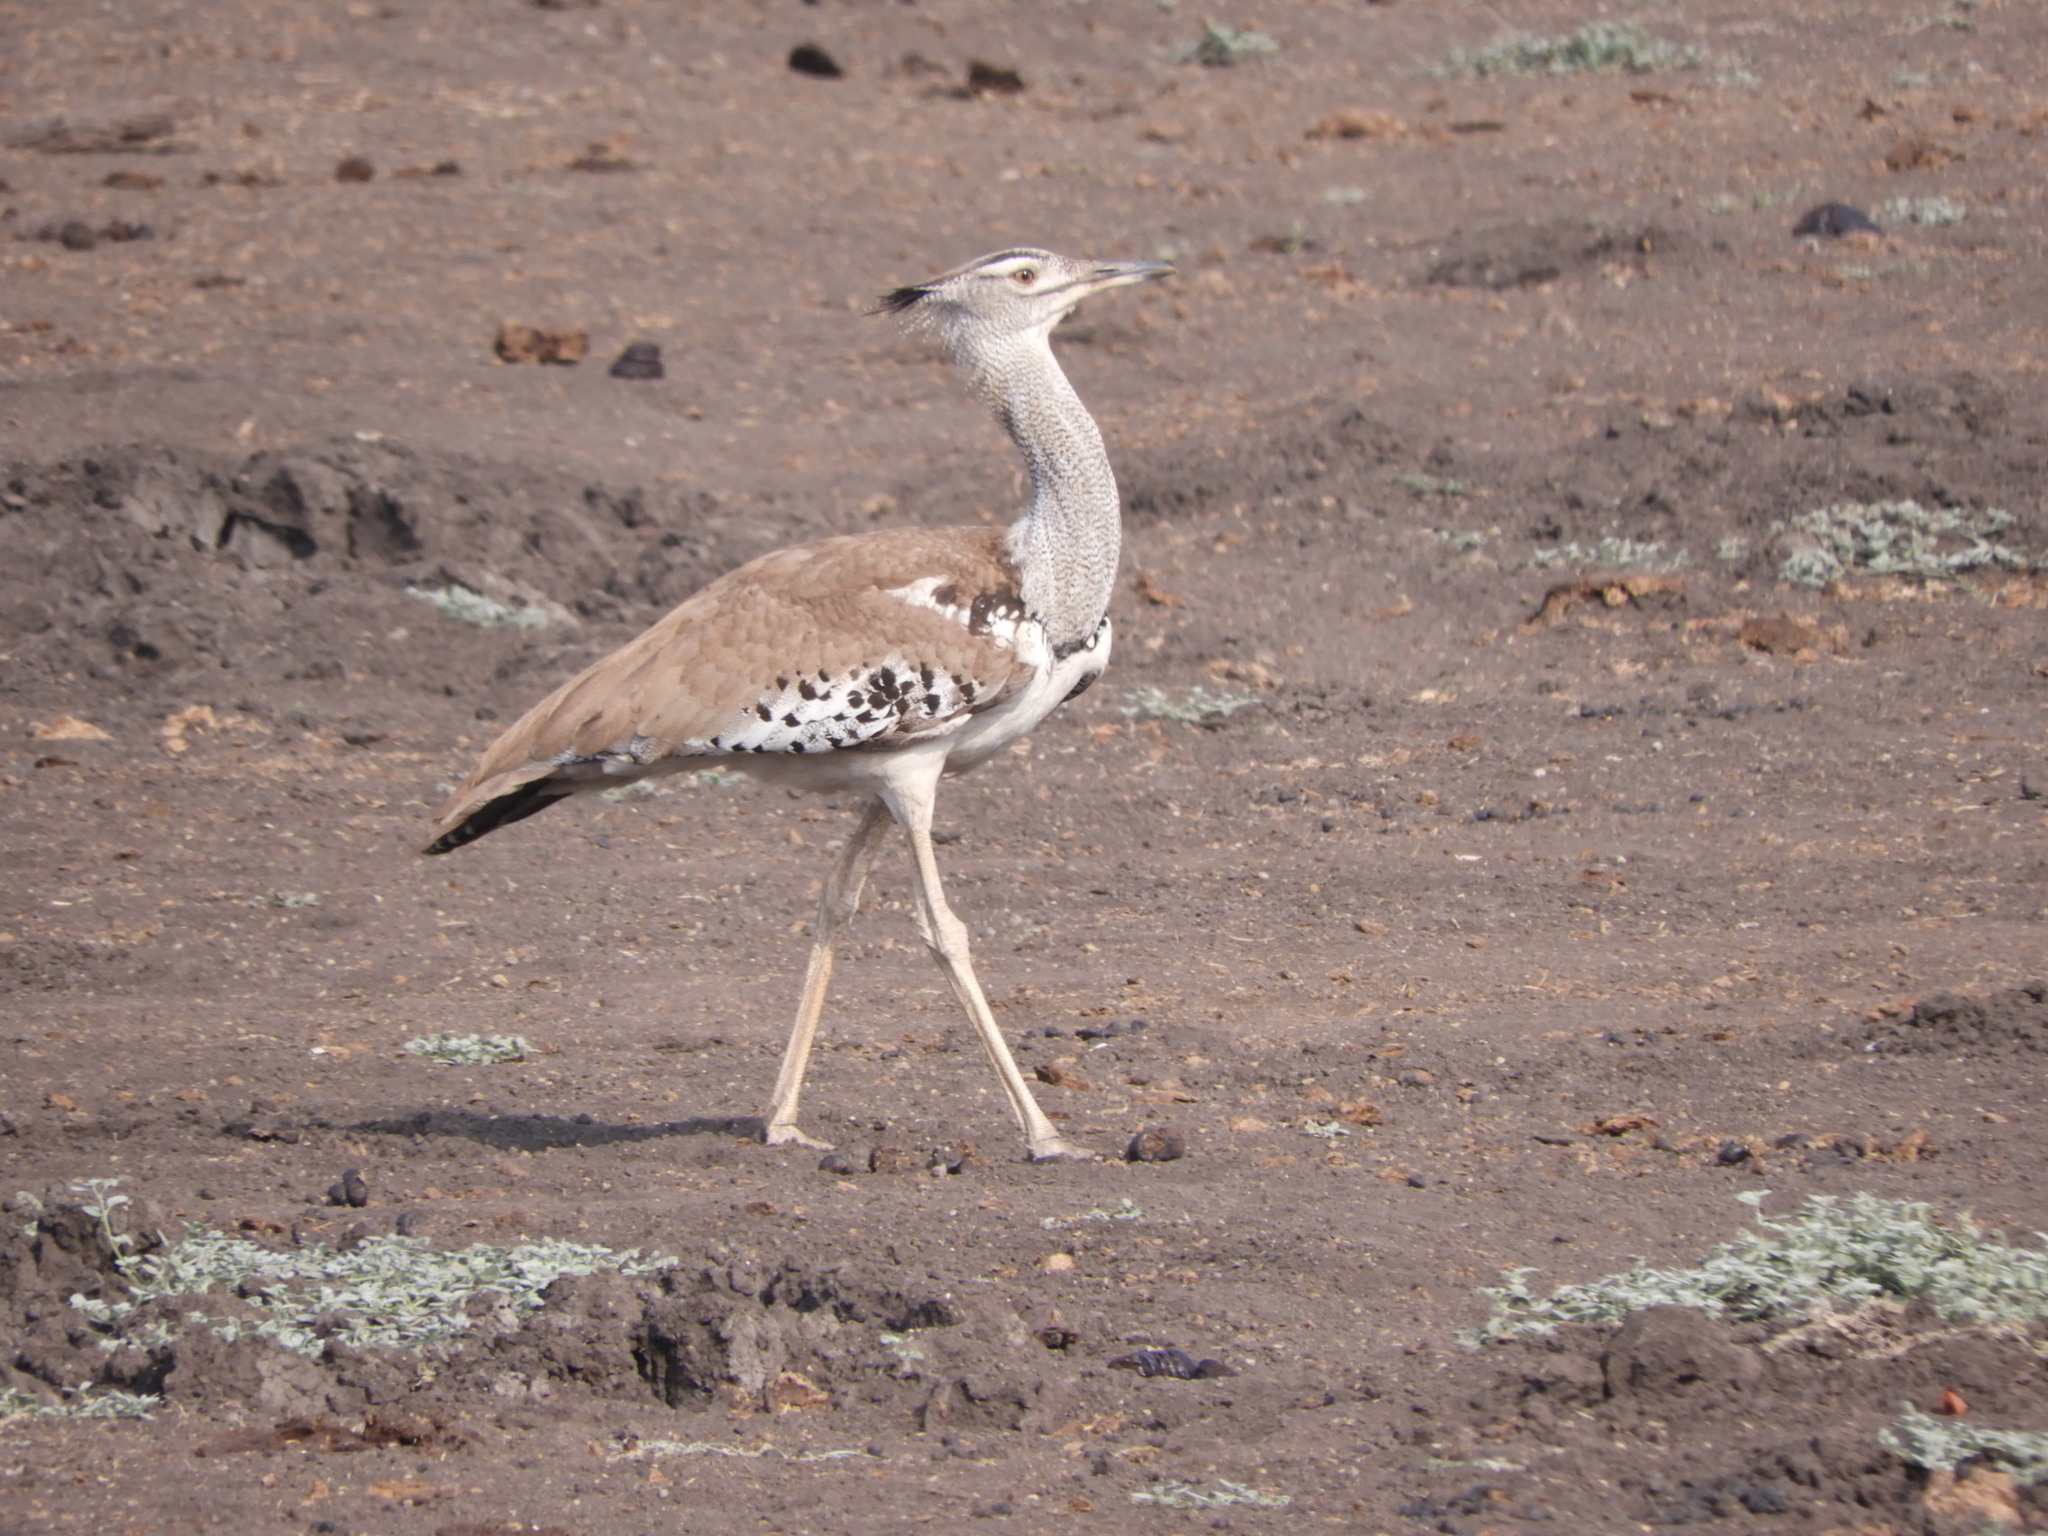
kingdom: Animalia
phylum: Chordata
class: Aves
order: Otidiformes
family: Otididae
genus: Ardeotis
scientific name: Ardeotis kori
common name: Kori bustard
